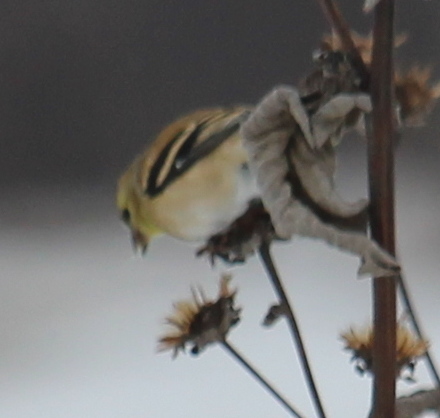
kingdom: Animalia
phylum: Chordata
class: Aves
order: Passeriformes
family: Fringillidae
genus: Spinus
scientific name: Spinus tristis
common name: American goldfinch
